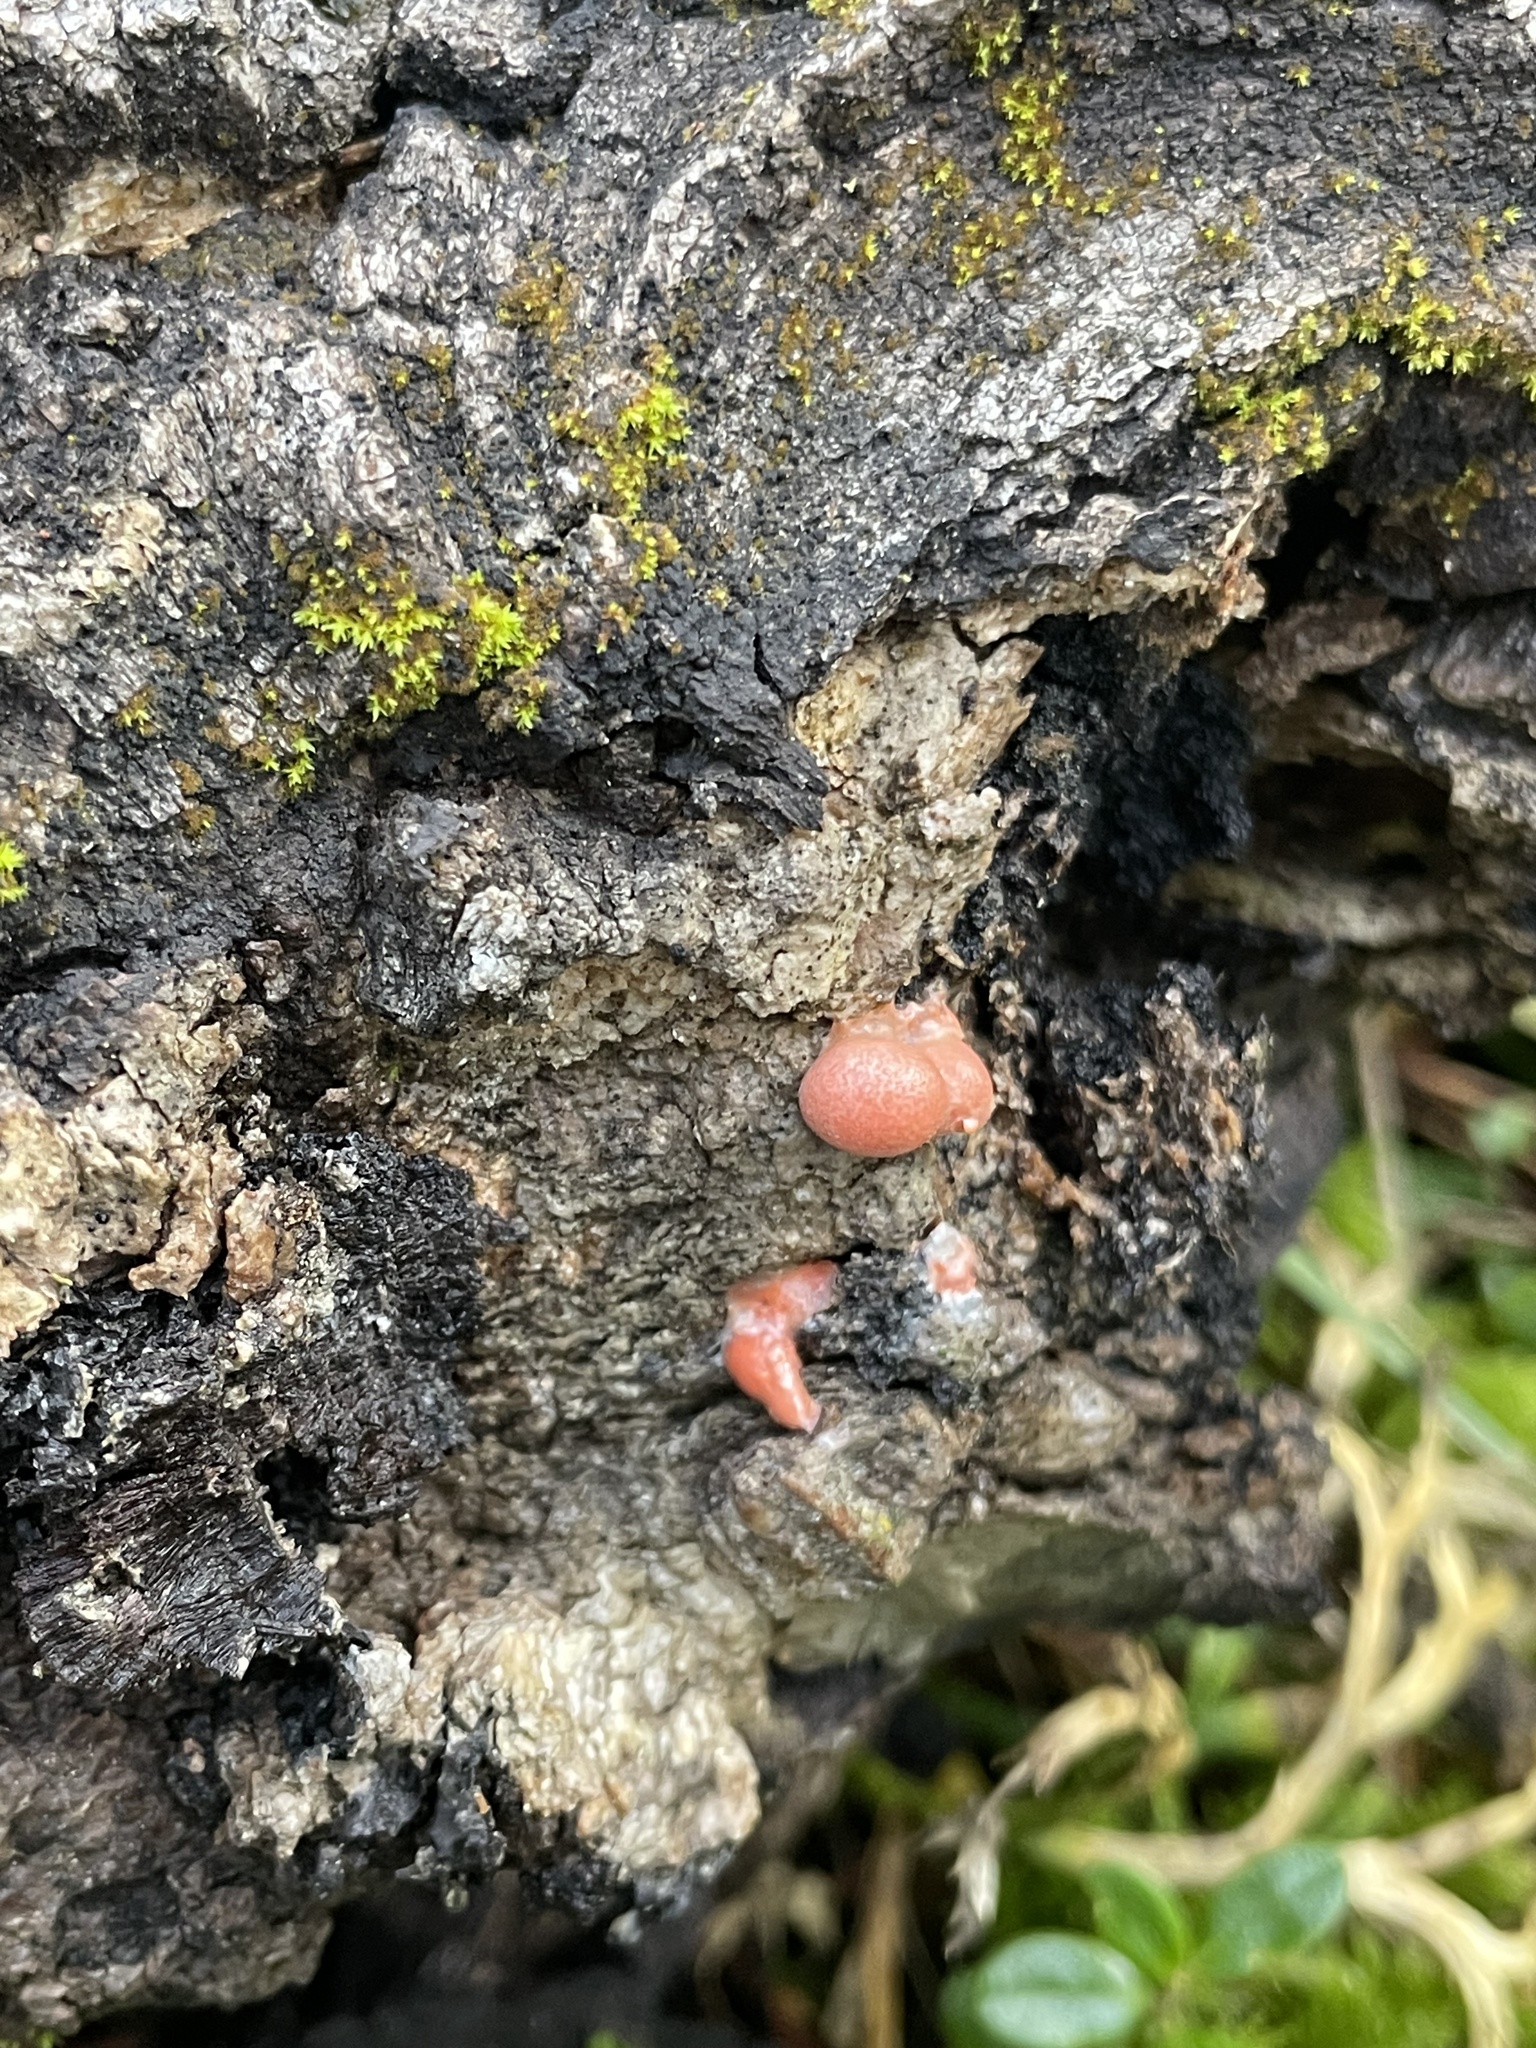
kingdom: Protozoa
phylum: Mycetozoa
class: Myxomycetes
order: Cribrariales
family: Tubiferaceae
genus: Lycogala
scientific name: Lycogala epidendrum
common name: Wolf's milk
